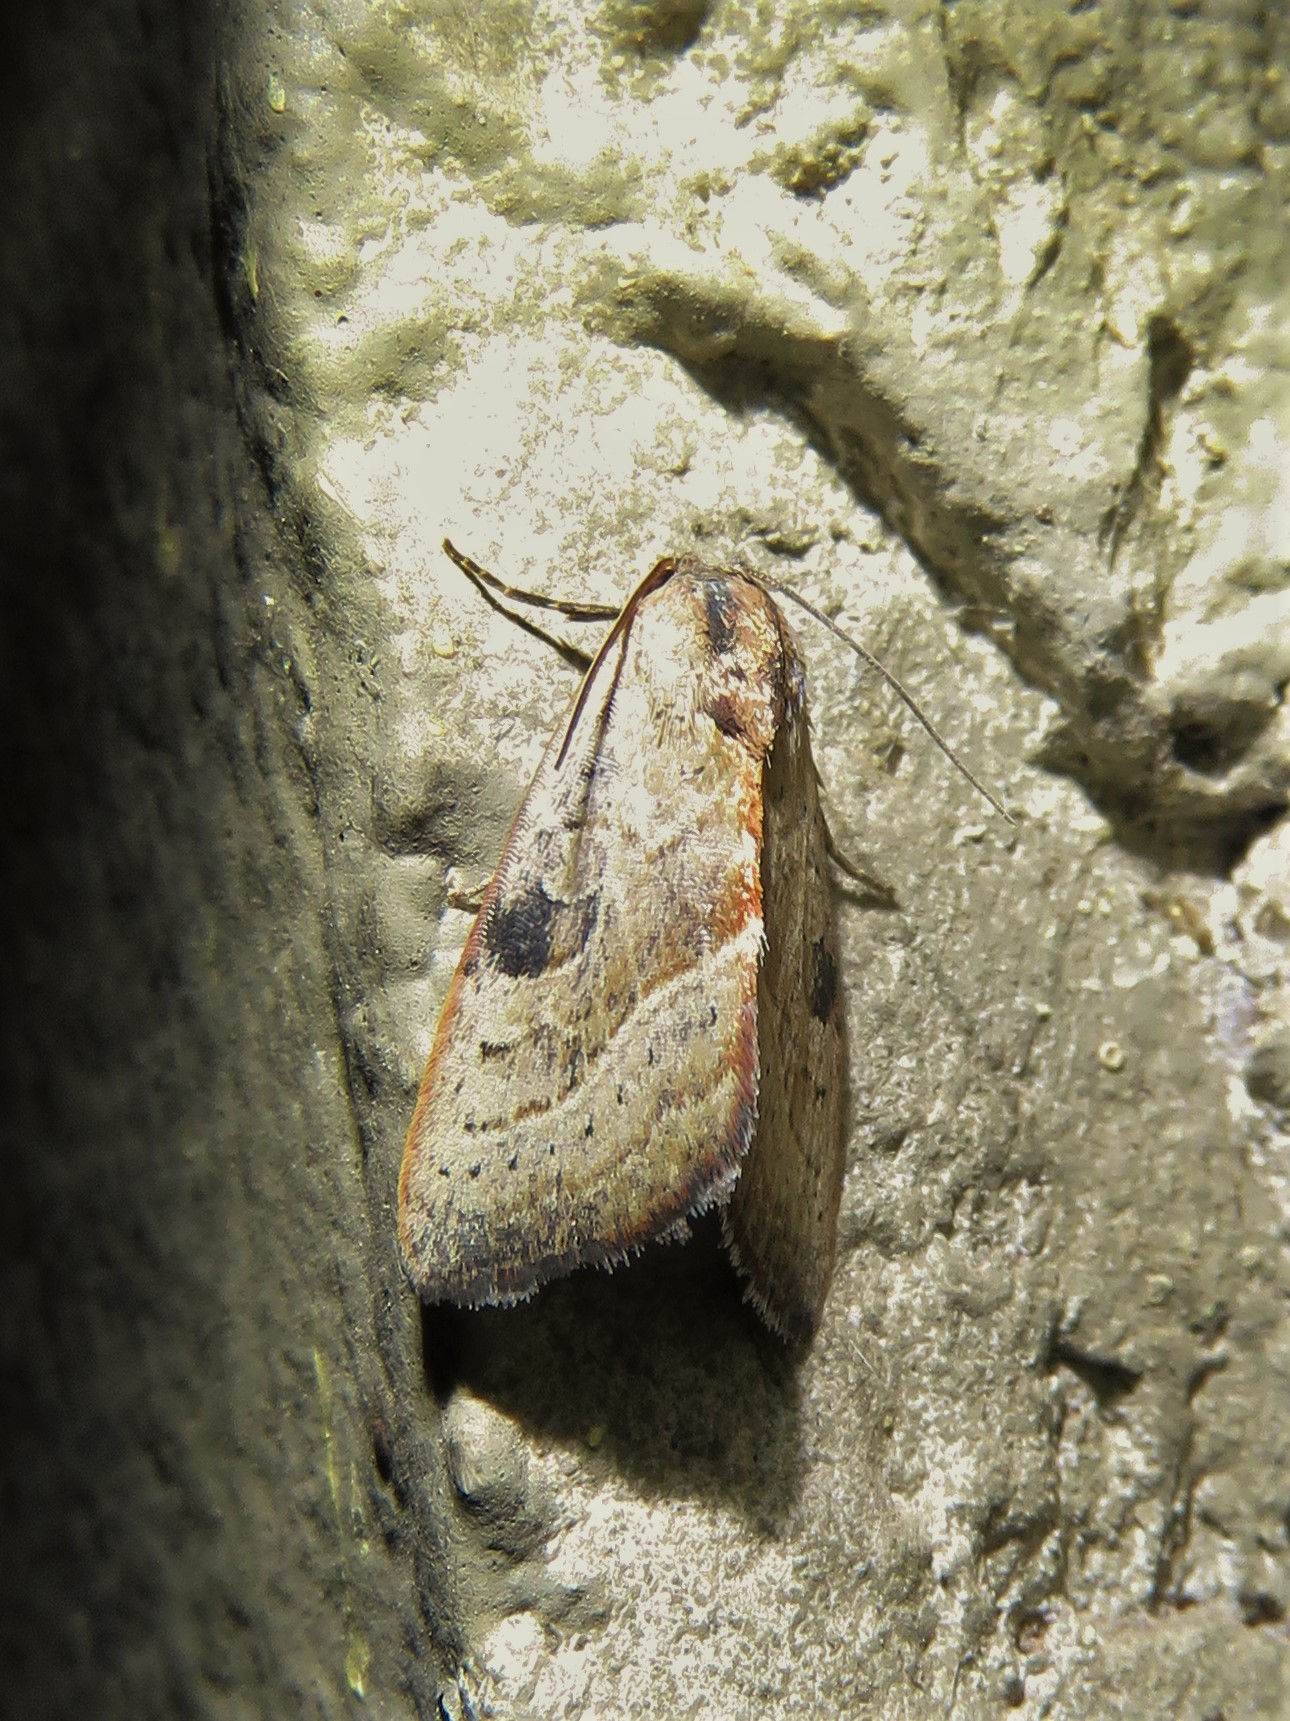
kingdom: Animalia
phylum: Arthropoda
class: Insecta
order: Lepidoptera
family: Noctuidae
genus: Galgula
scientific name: Galgula partita
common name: Wedgeling
